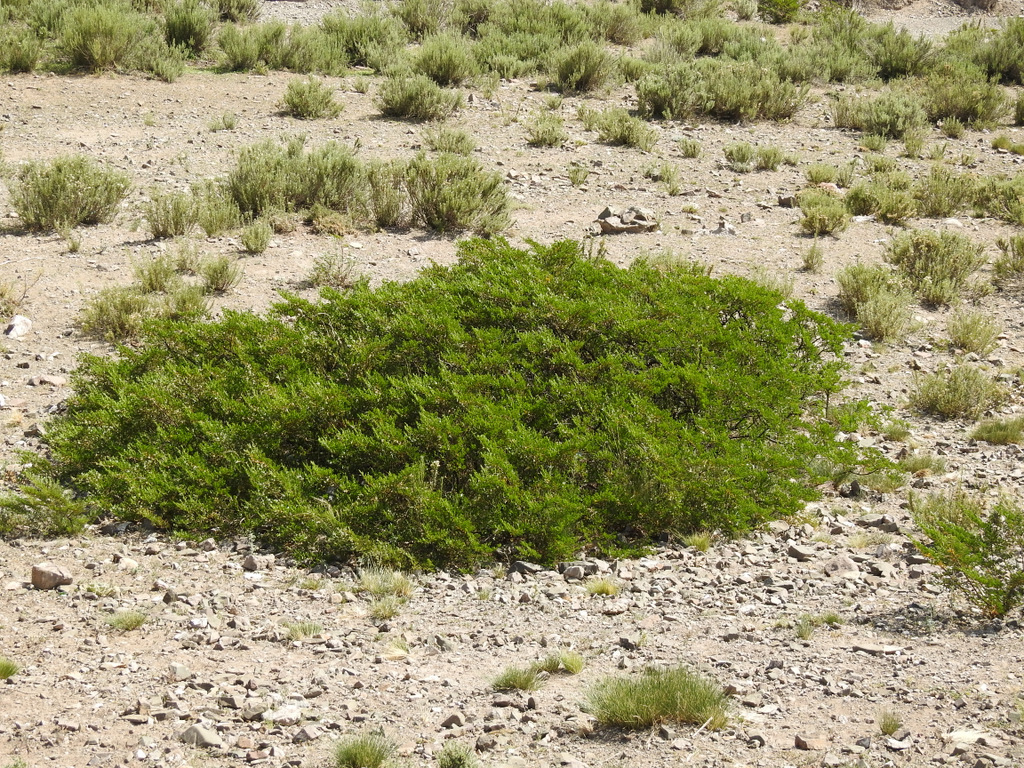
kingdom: Plantae
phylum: Tracheophyta
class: Magnoliopsida
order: Zygophyllales
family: Zygophyllaceae
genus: Larrea
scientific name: Larrea nitida
